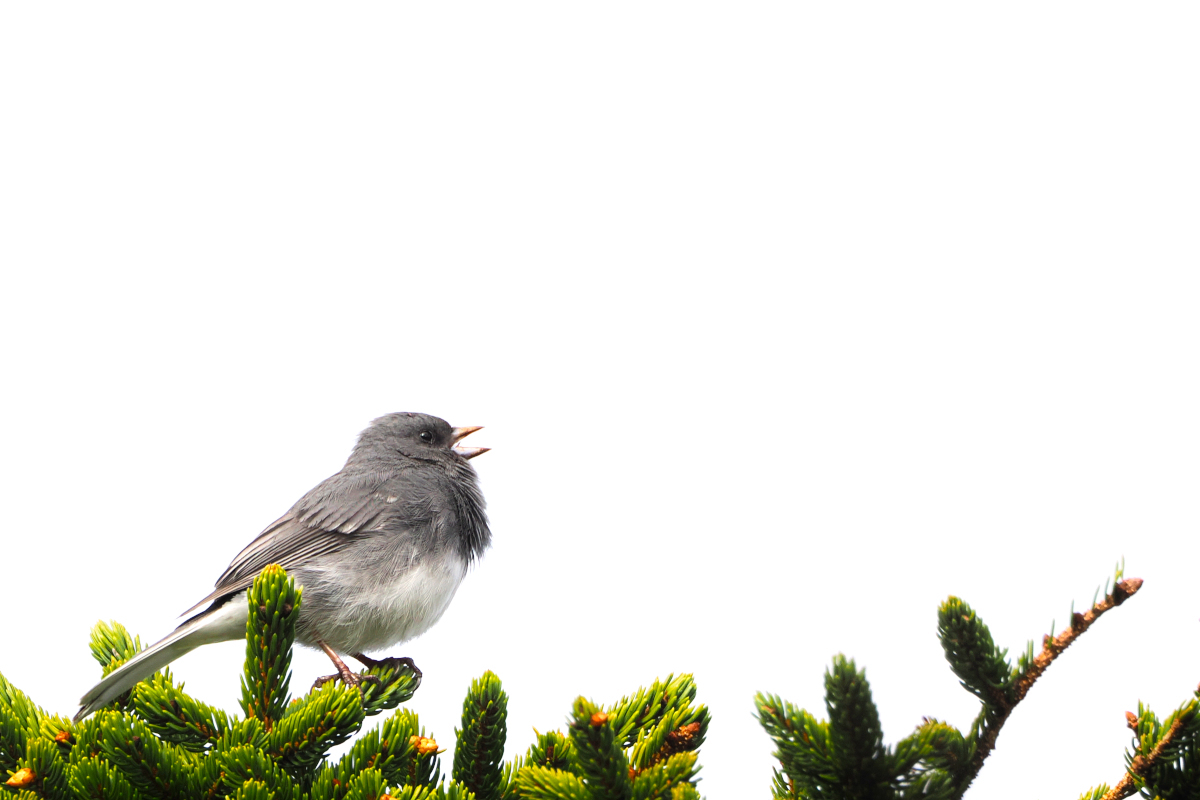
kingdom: Animalia
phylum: Chordata
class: Aves
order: Passeriformes
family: Passerellidae
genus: Junco
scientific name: Junco hyemalis
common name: Dark-eyed junco
